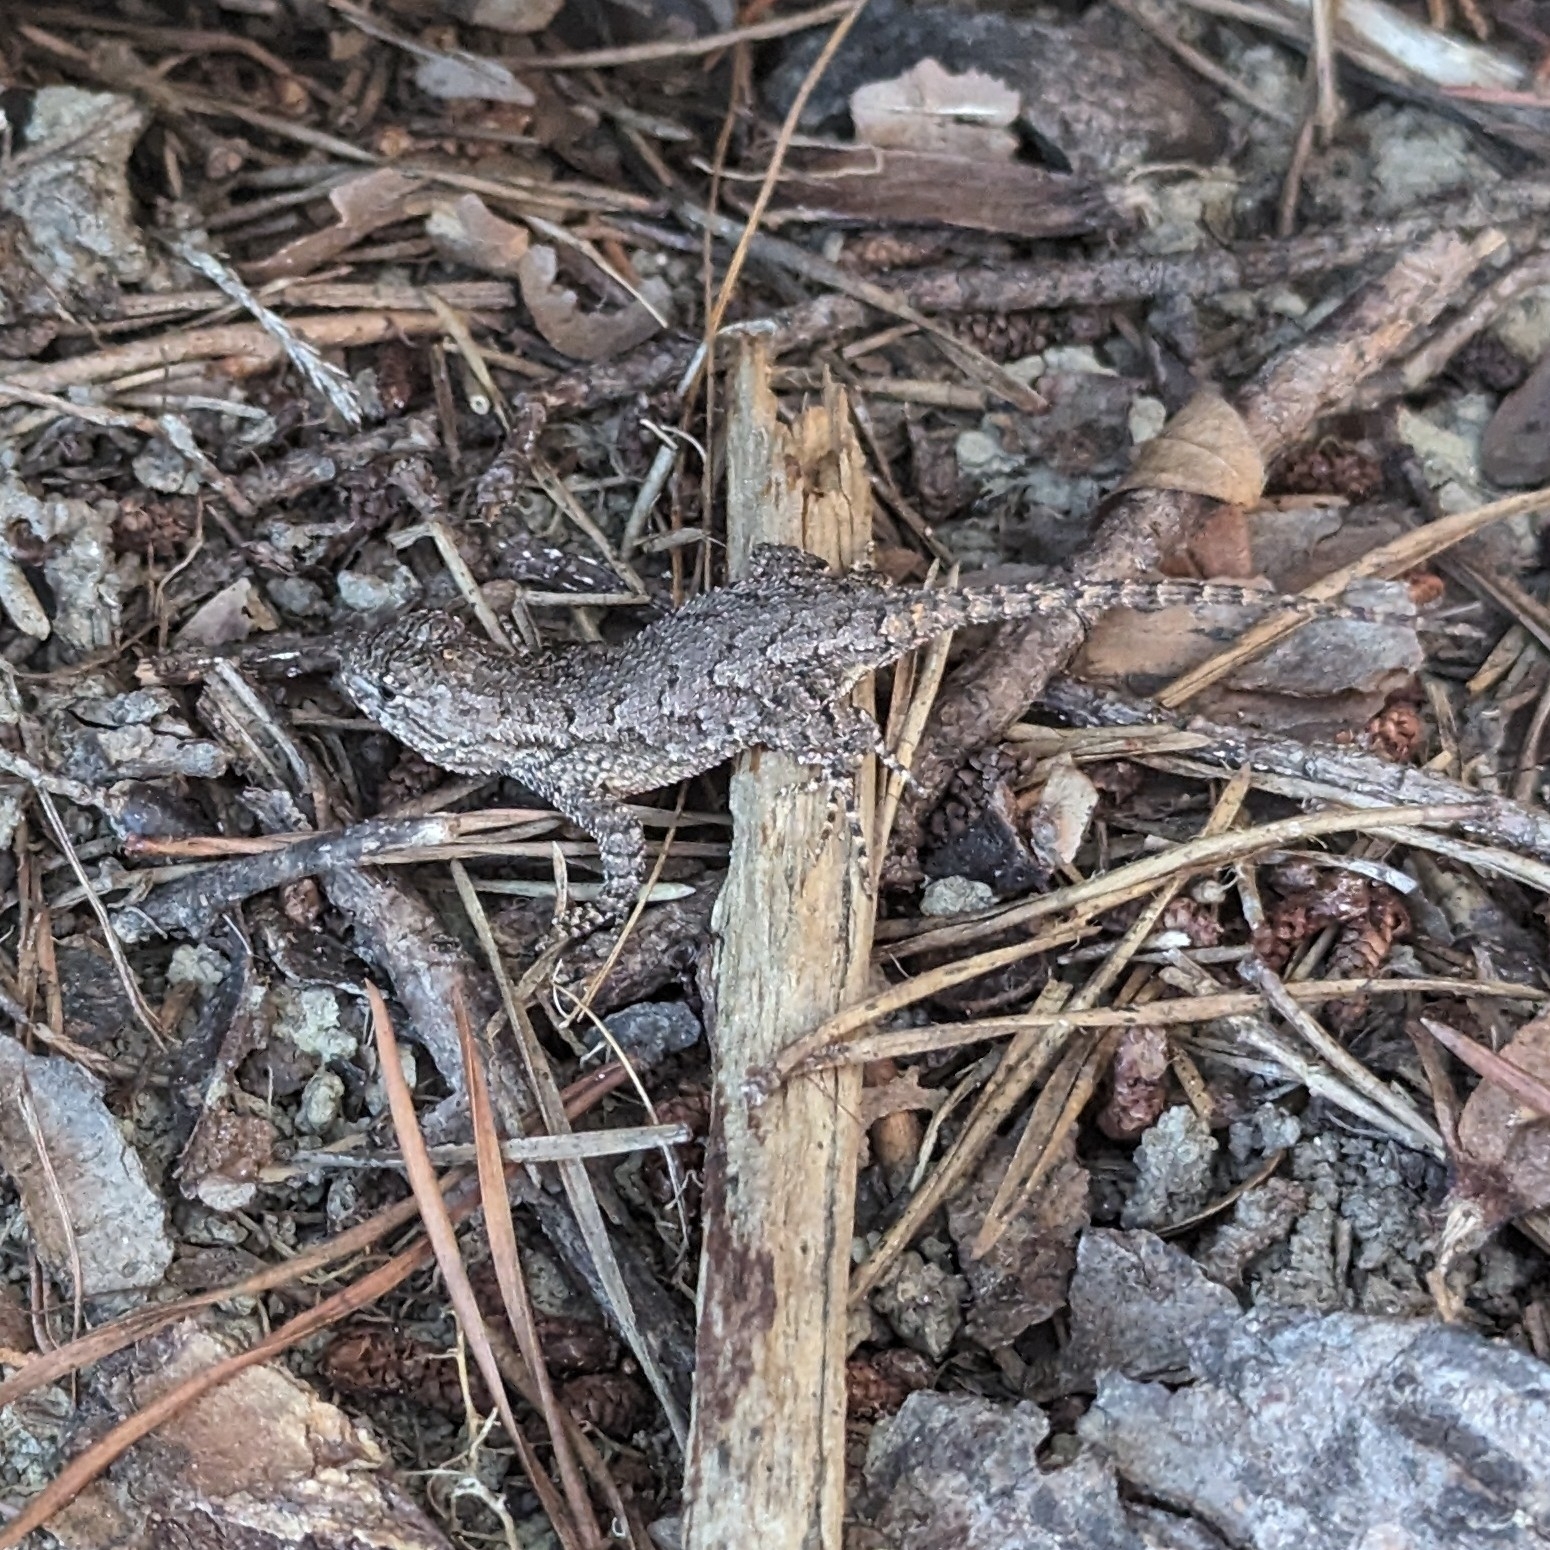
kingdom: Animalia
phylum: Chordata
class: Squamata
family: Phrynosomatidae
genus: Sceloporus
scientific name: Sceloporus undulatus
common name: Eastern fence lizard
